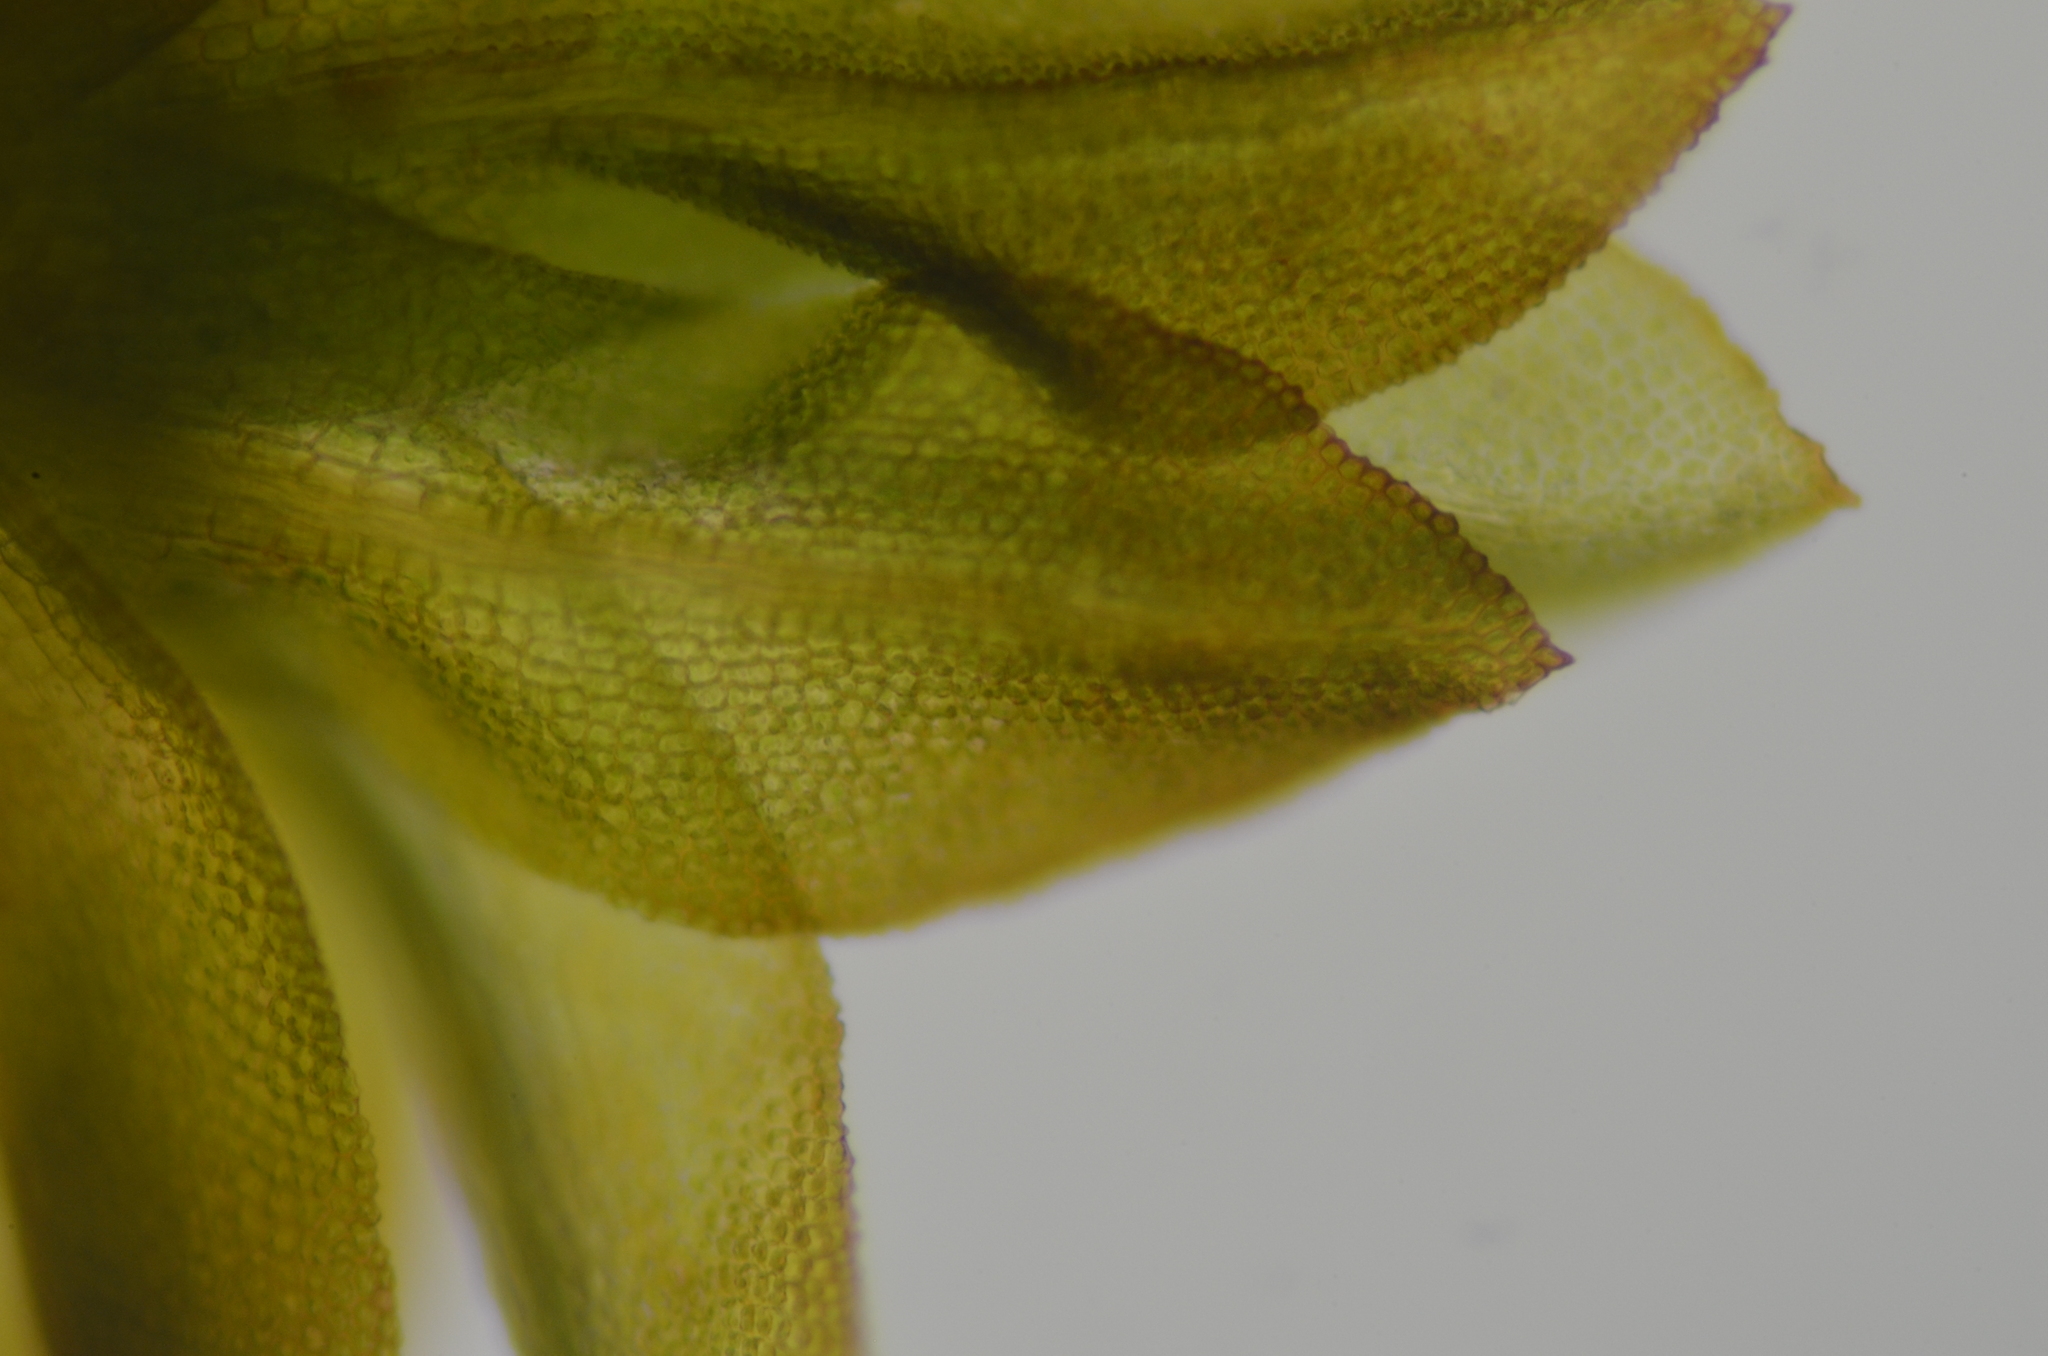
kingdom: Plantae
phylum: Bryophyta
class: Bryopsida
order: Pottiales
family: Pottiaceae
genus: Tortula
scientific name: Tortula bolanderi
